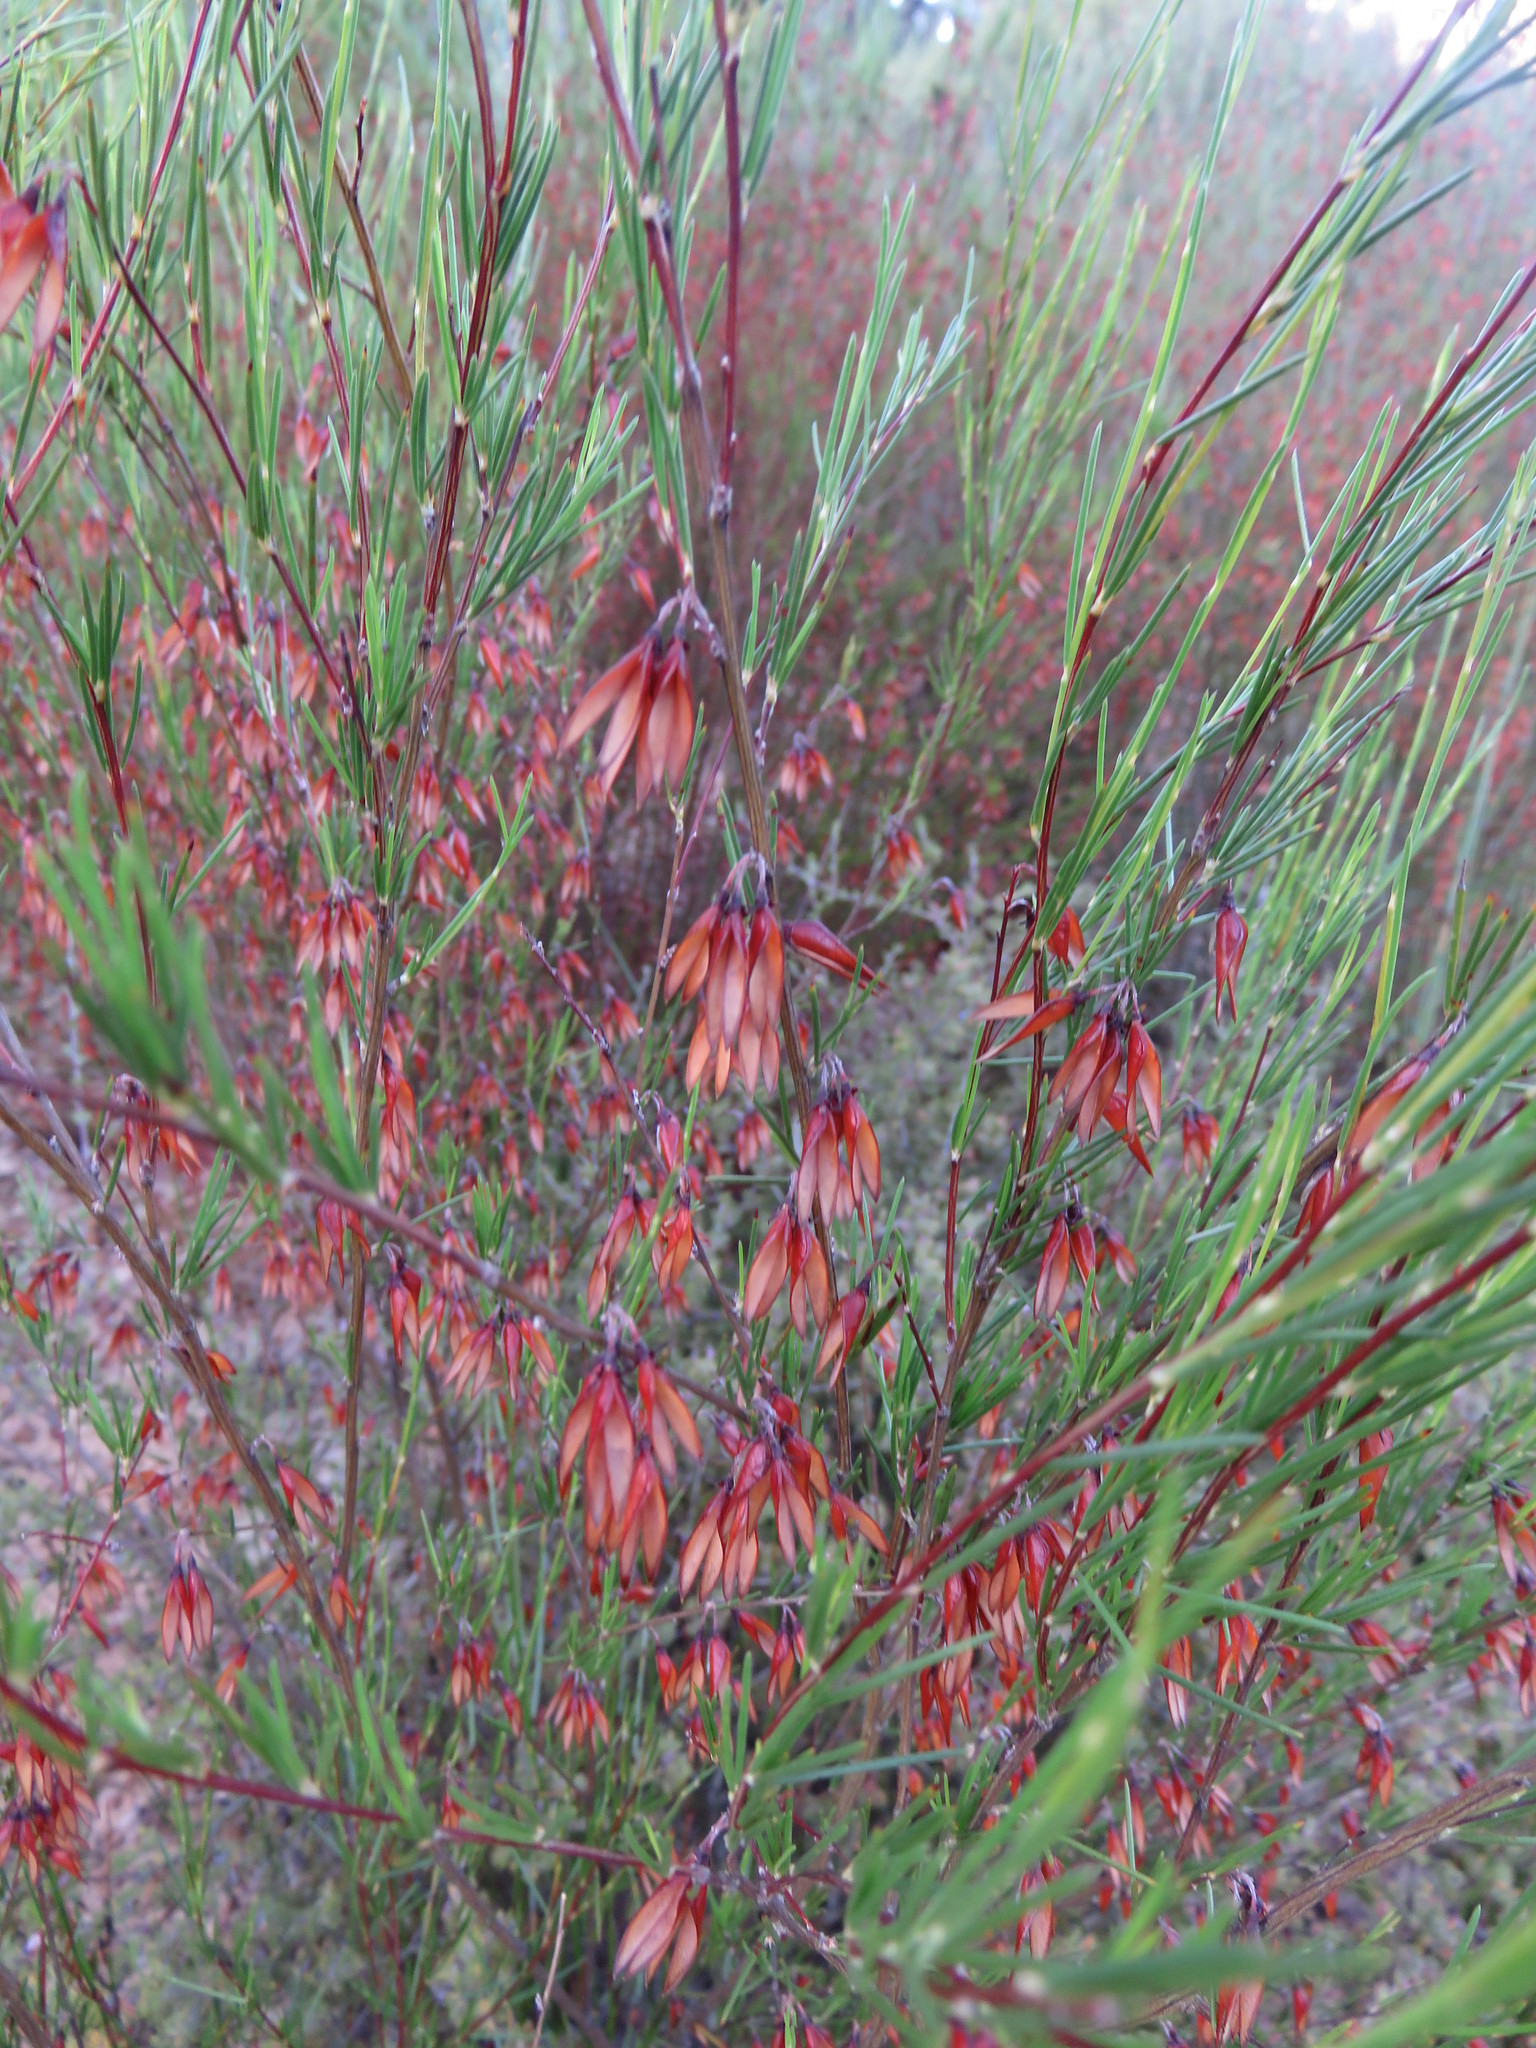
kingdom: Plantae
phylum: Tracheophyta
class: Magnoliopsida
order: Fabales
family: Fabaceae
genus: Aspalathus
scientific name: Aspalathus linearis
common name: Rooibos-tea
